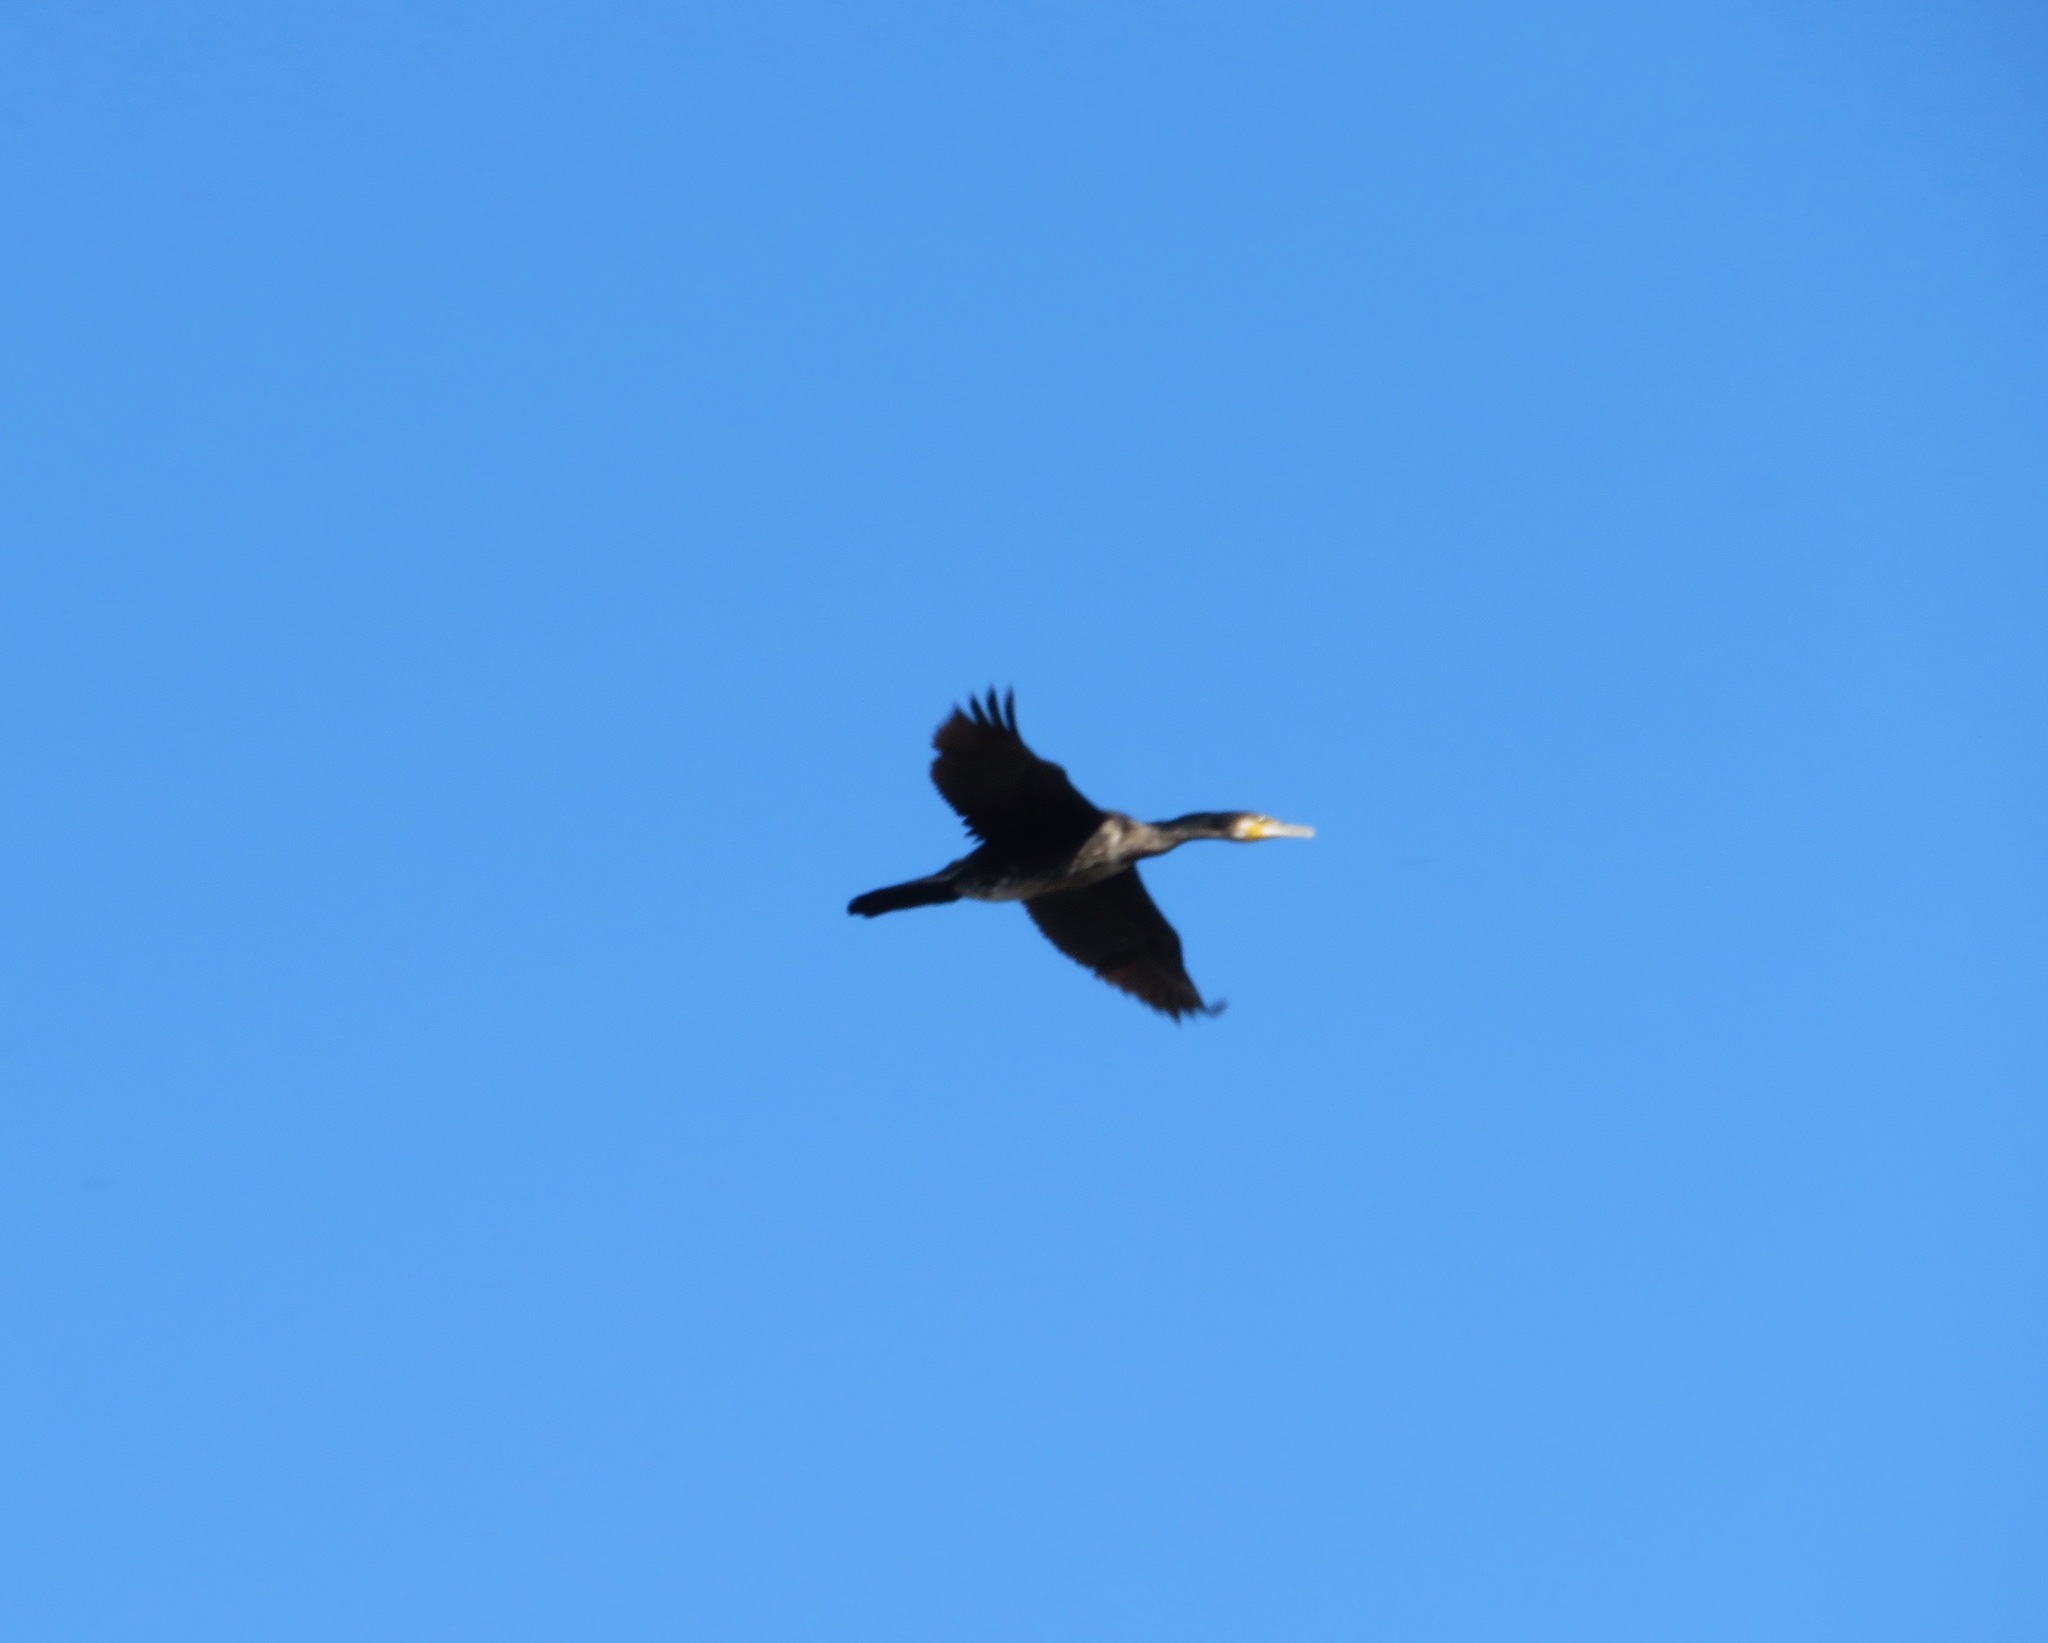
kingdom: Animalia
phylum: Chordata
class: Aves
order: Suliformes
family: Phalacrocoracidae
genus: Phalacrocorax
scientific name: Phalacrocorax carbo
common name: Great cormorant
